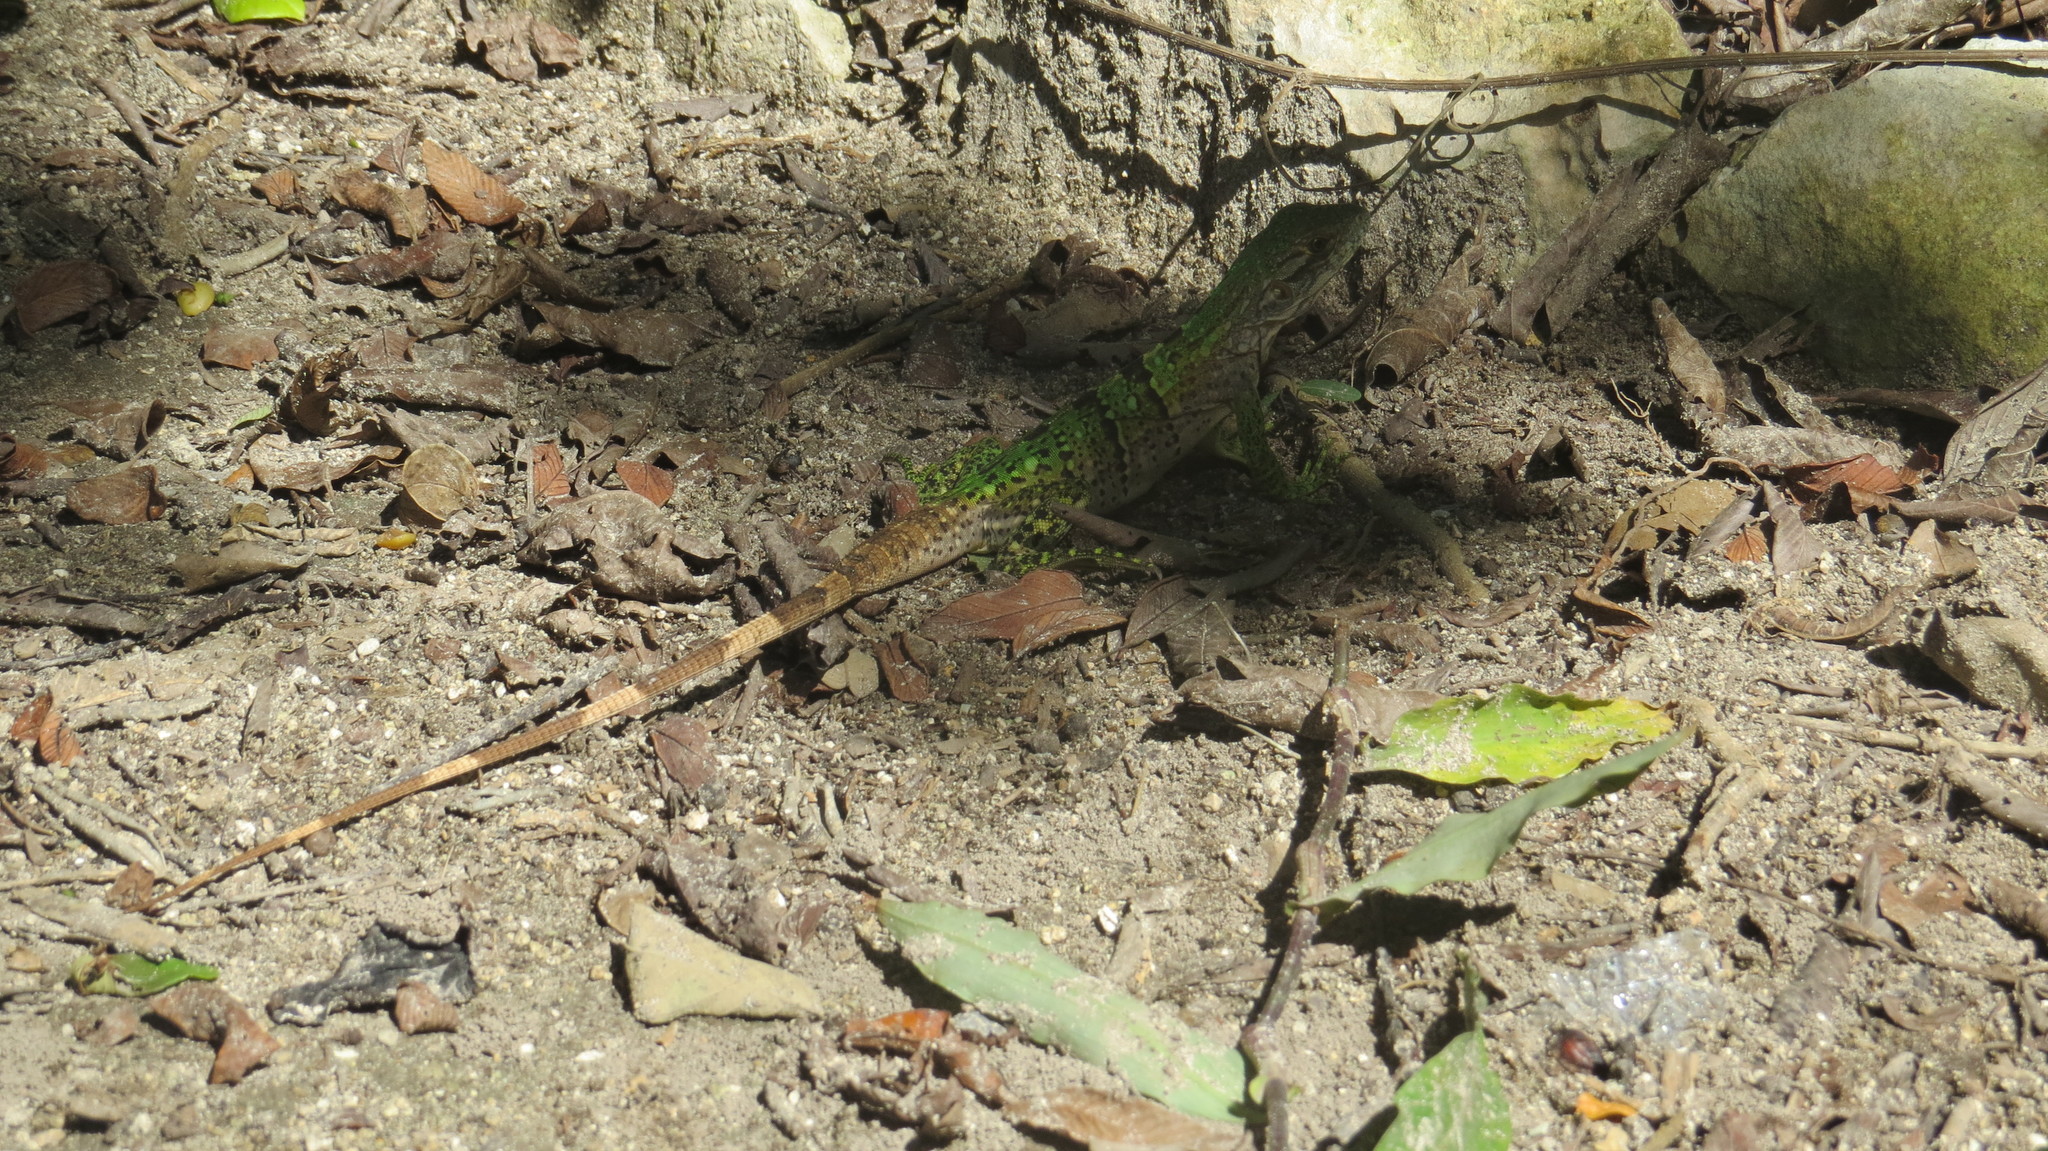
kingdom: Animalia
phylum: Chordata
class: Squamata
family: Iguanidae
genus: Ctenosaura
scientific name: Ctenosaura similis
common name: Black spiny-tailed iguana
